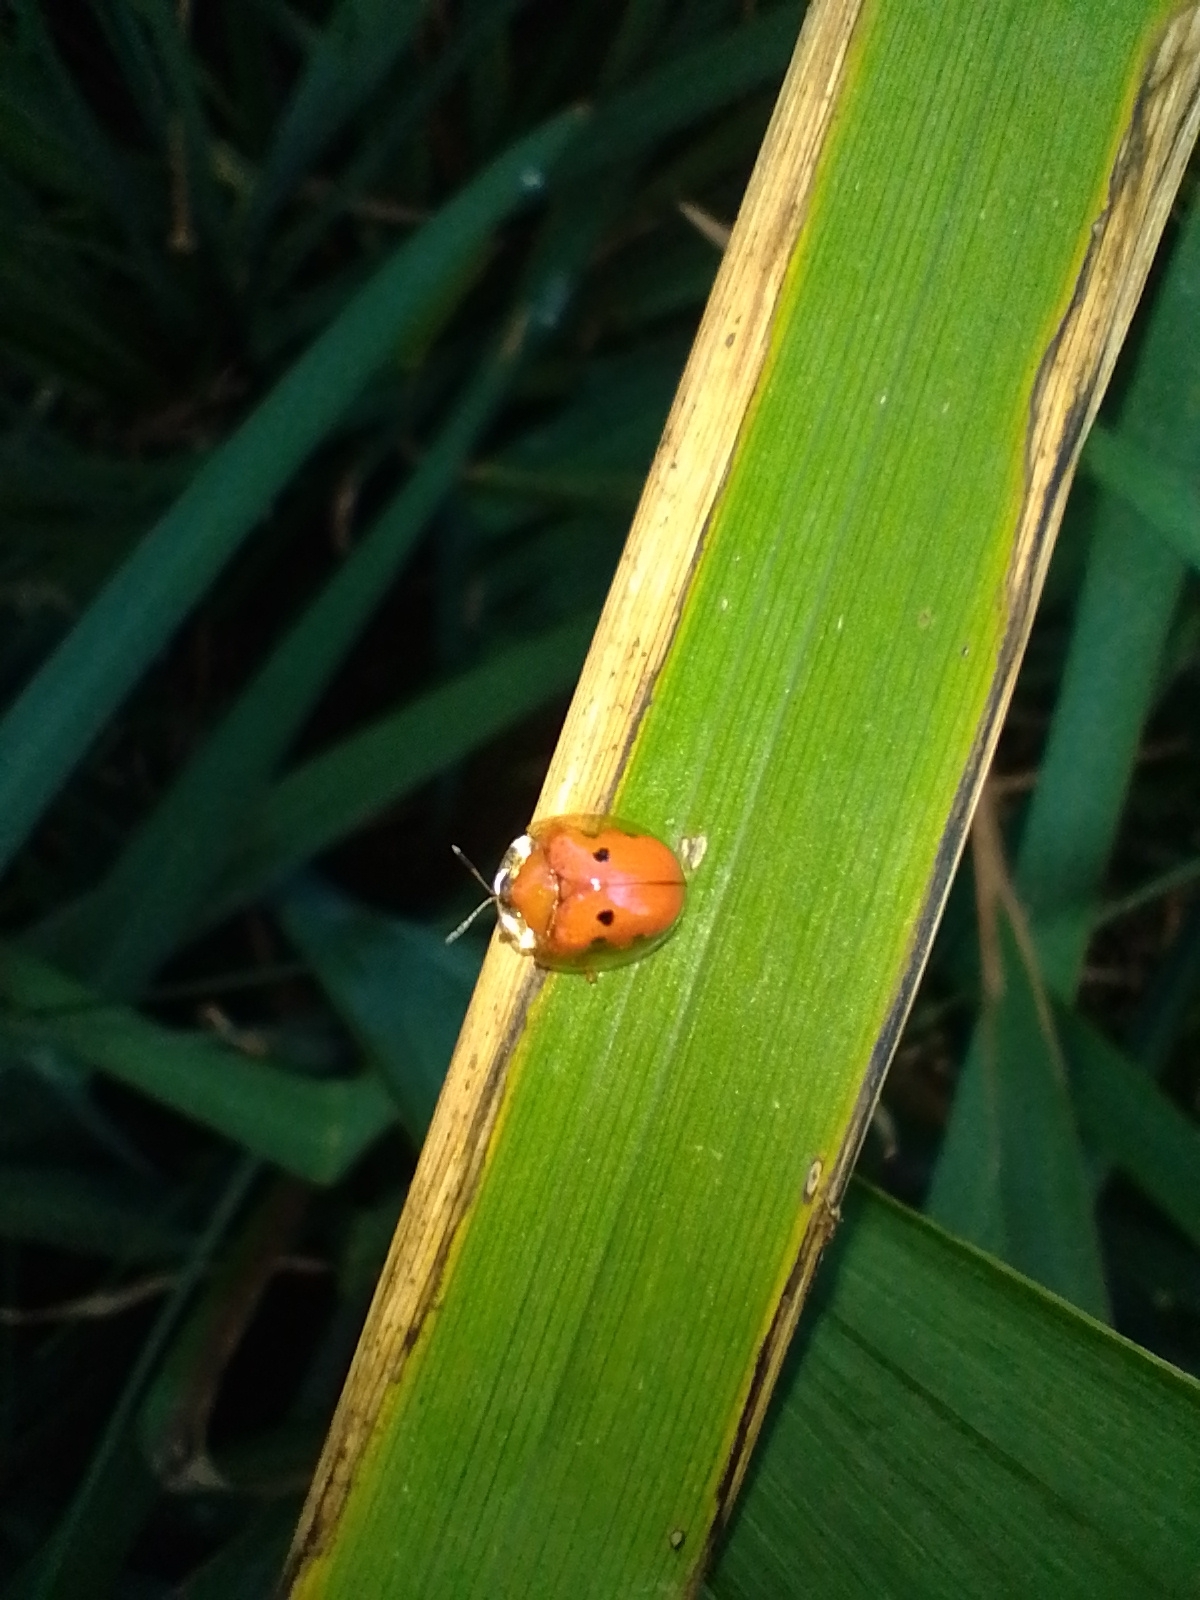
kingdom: Animalia
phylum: Arthropoda
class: Insecta
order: Coleoptera
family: Chrysomelidae
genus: Charidotella
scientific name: Charidotella sexpunctata
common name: Golden tortoise beetle
